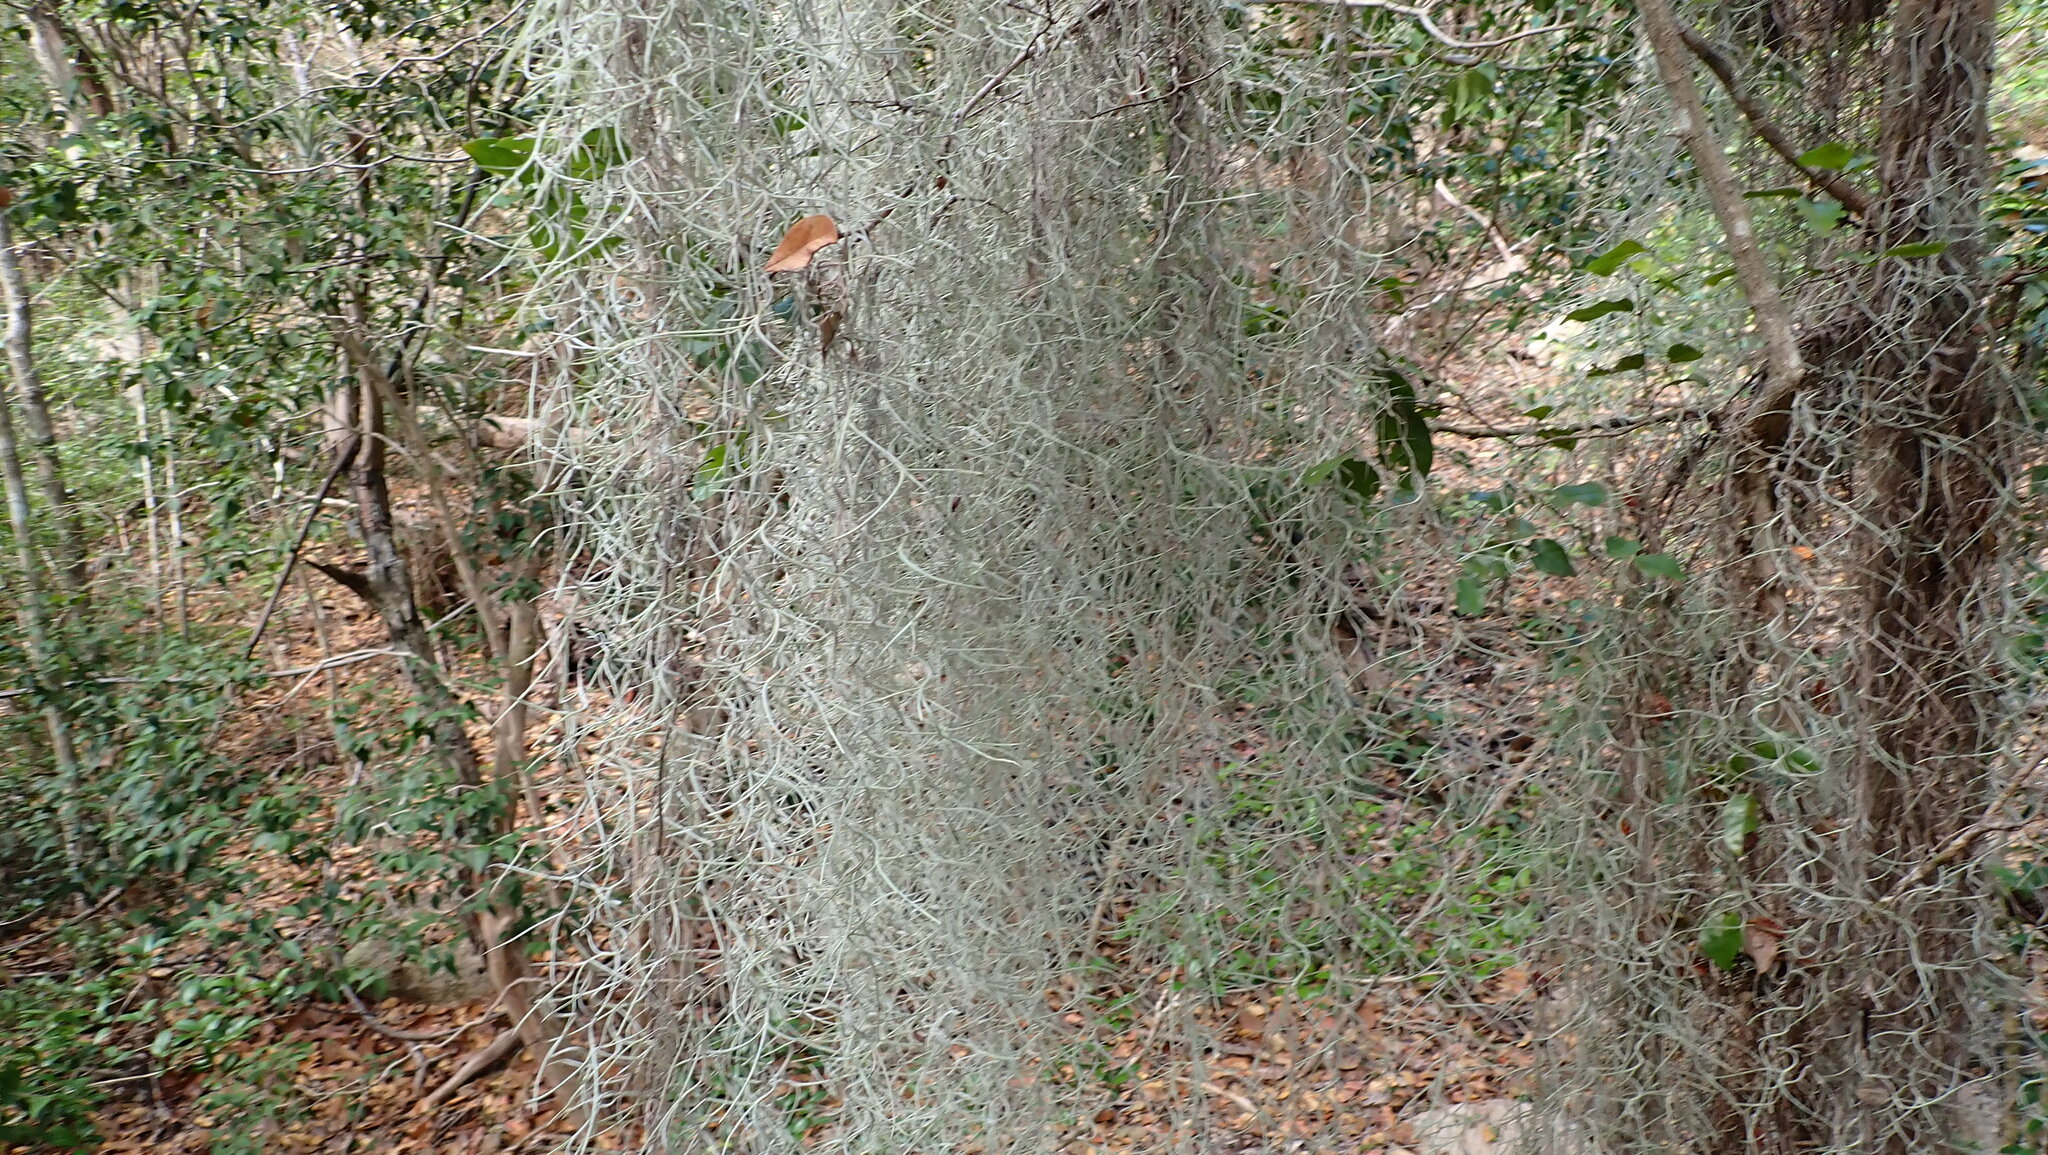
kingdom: Plantae
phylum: Tracheophyta
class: Liliopsida
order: Poales
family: Bromeliaceae
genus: Tillandsia
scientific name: Tillandsia usneoides
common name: Spanish moss
